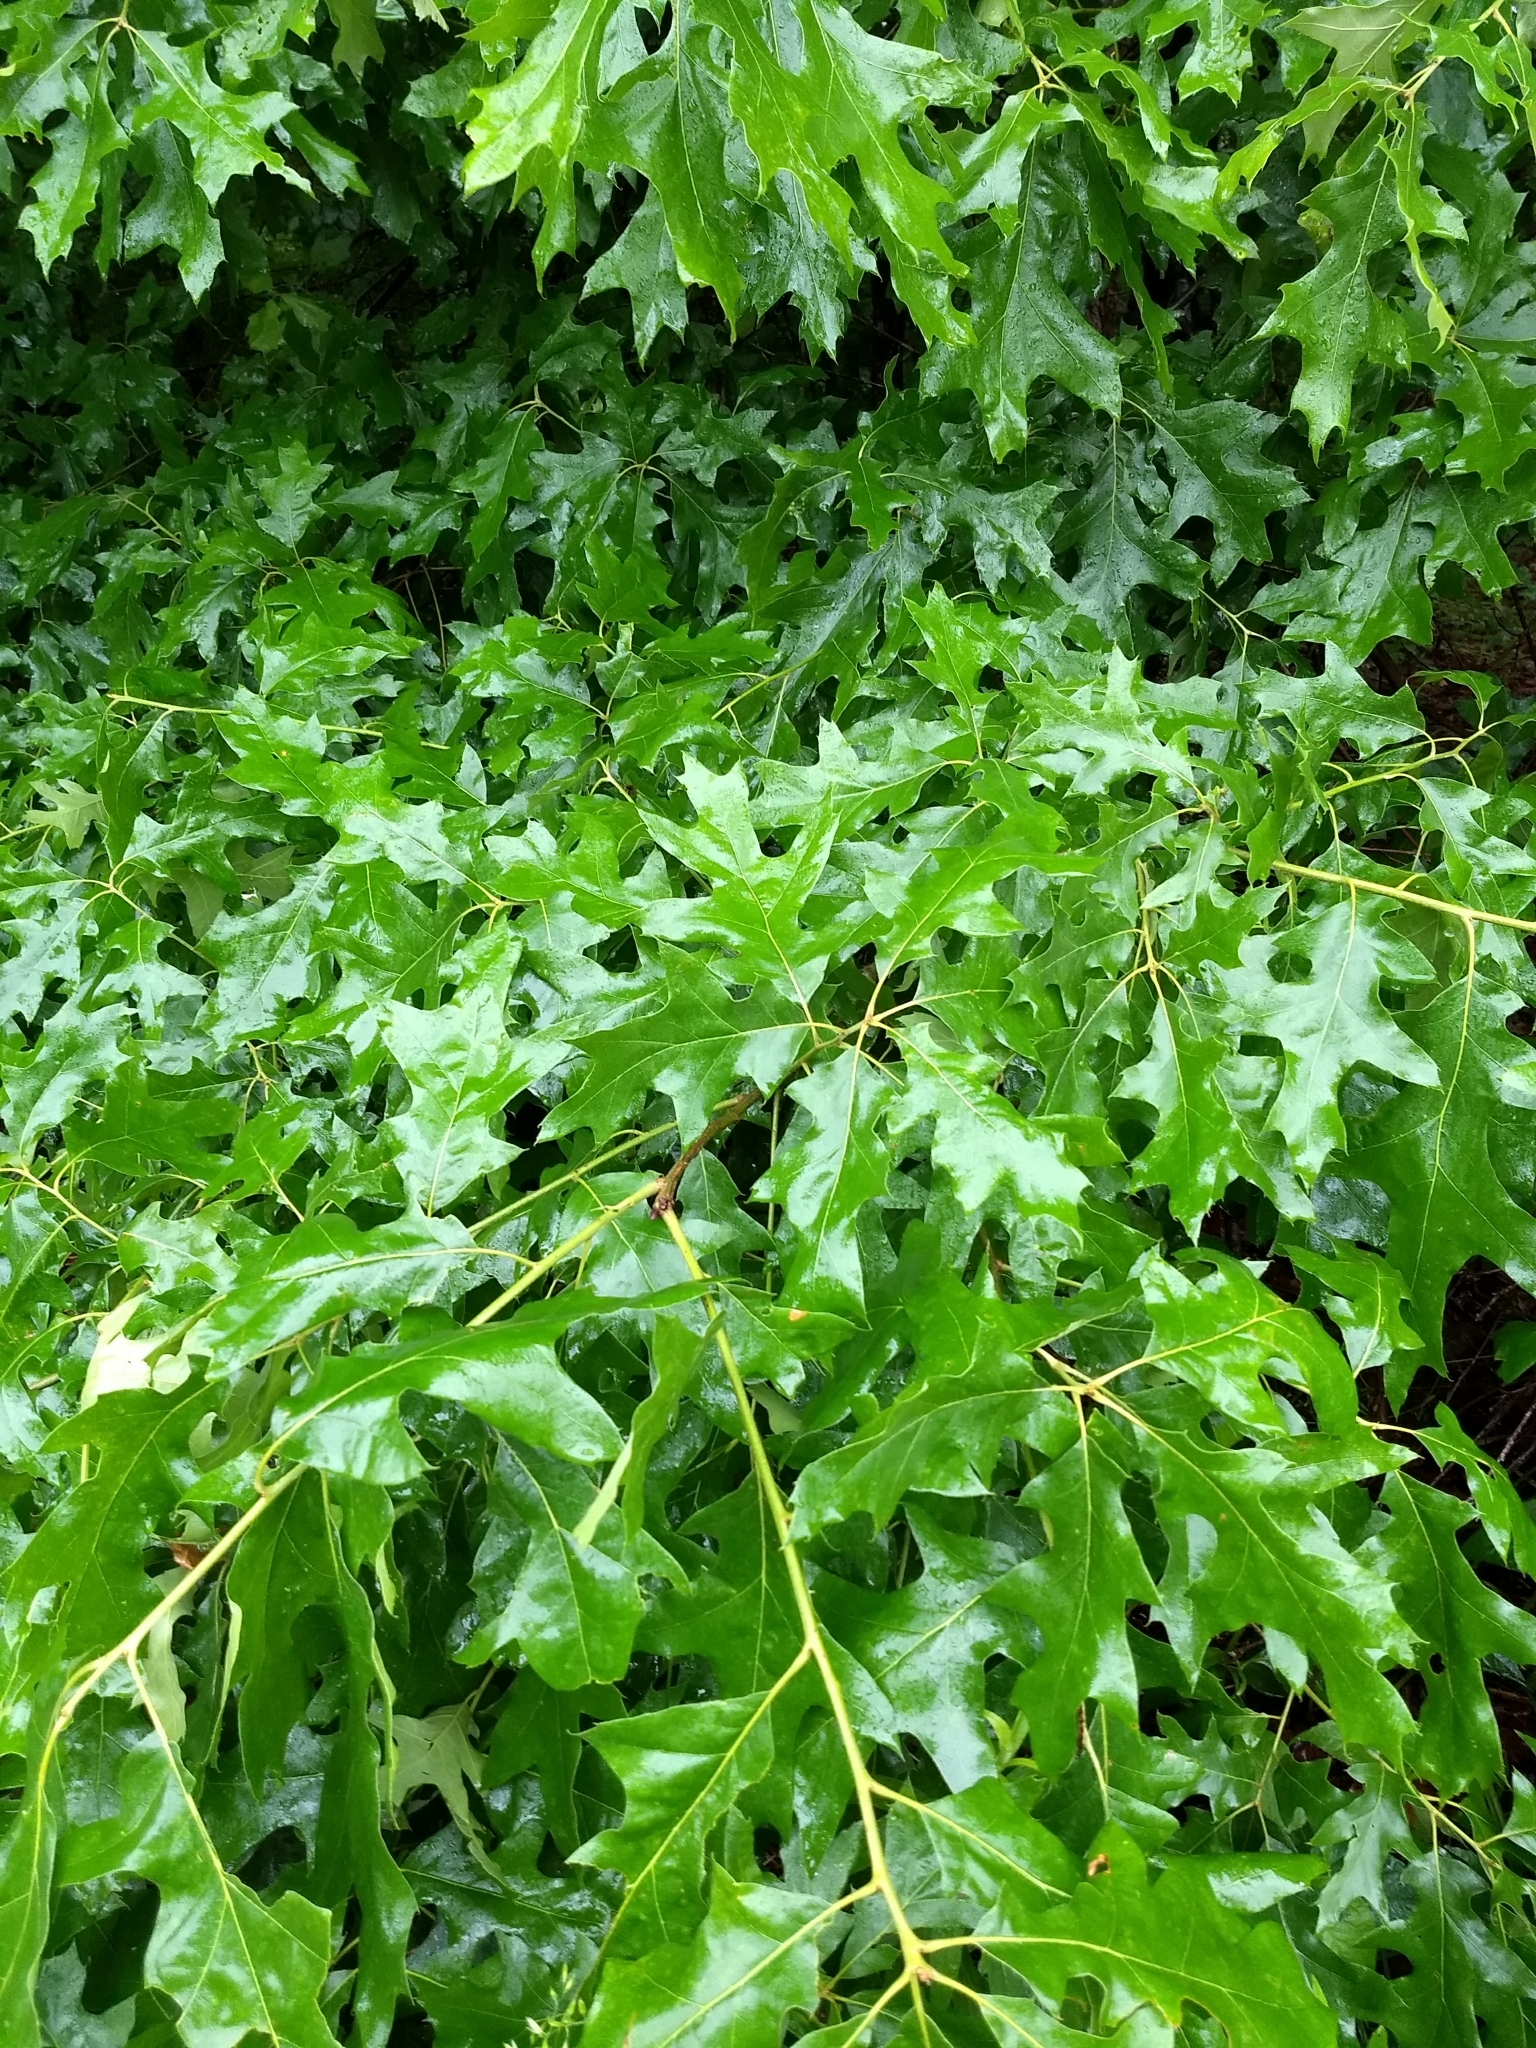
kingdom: Plantae
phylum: Tracheophyta
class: Magnoliopsida
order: Fagales
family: Fagaceae
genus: Quercus
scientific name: Quercus velutina
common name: Black oak
